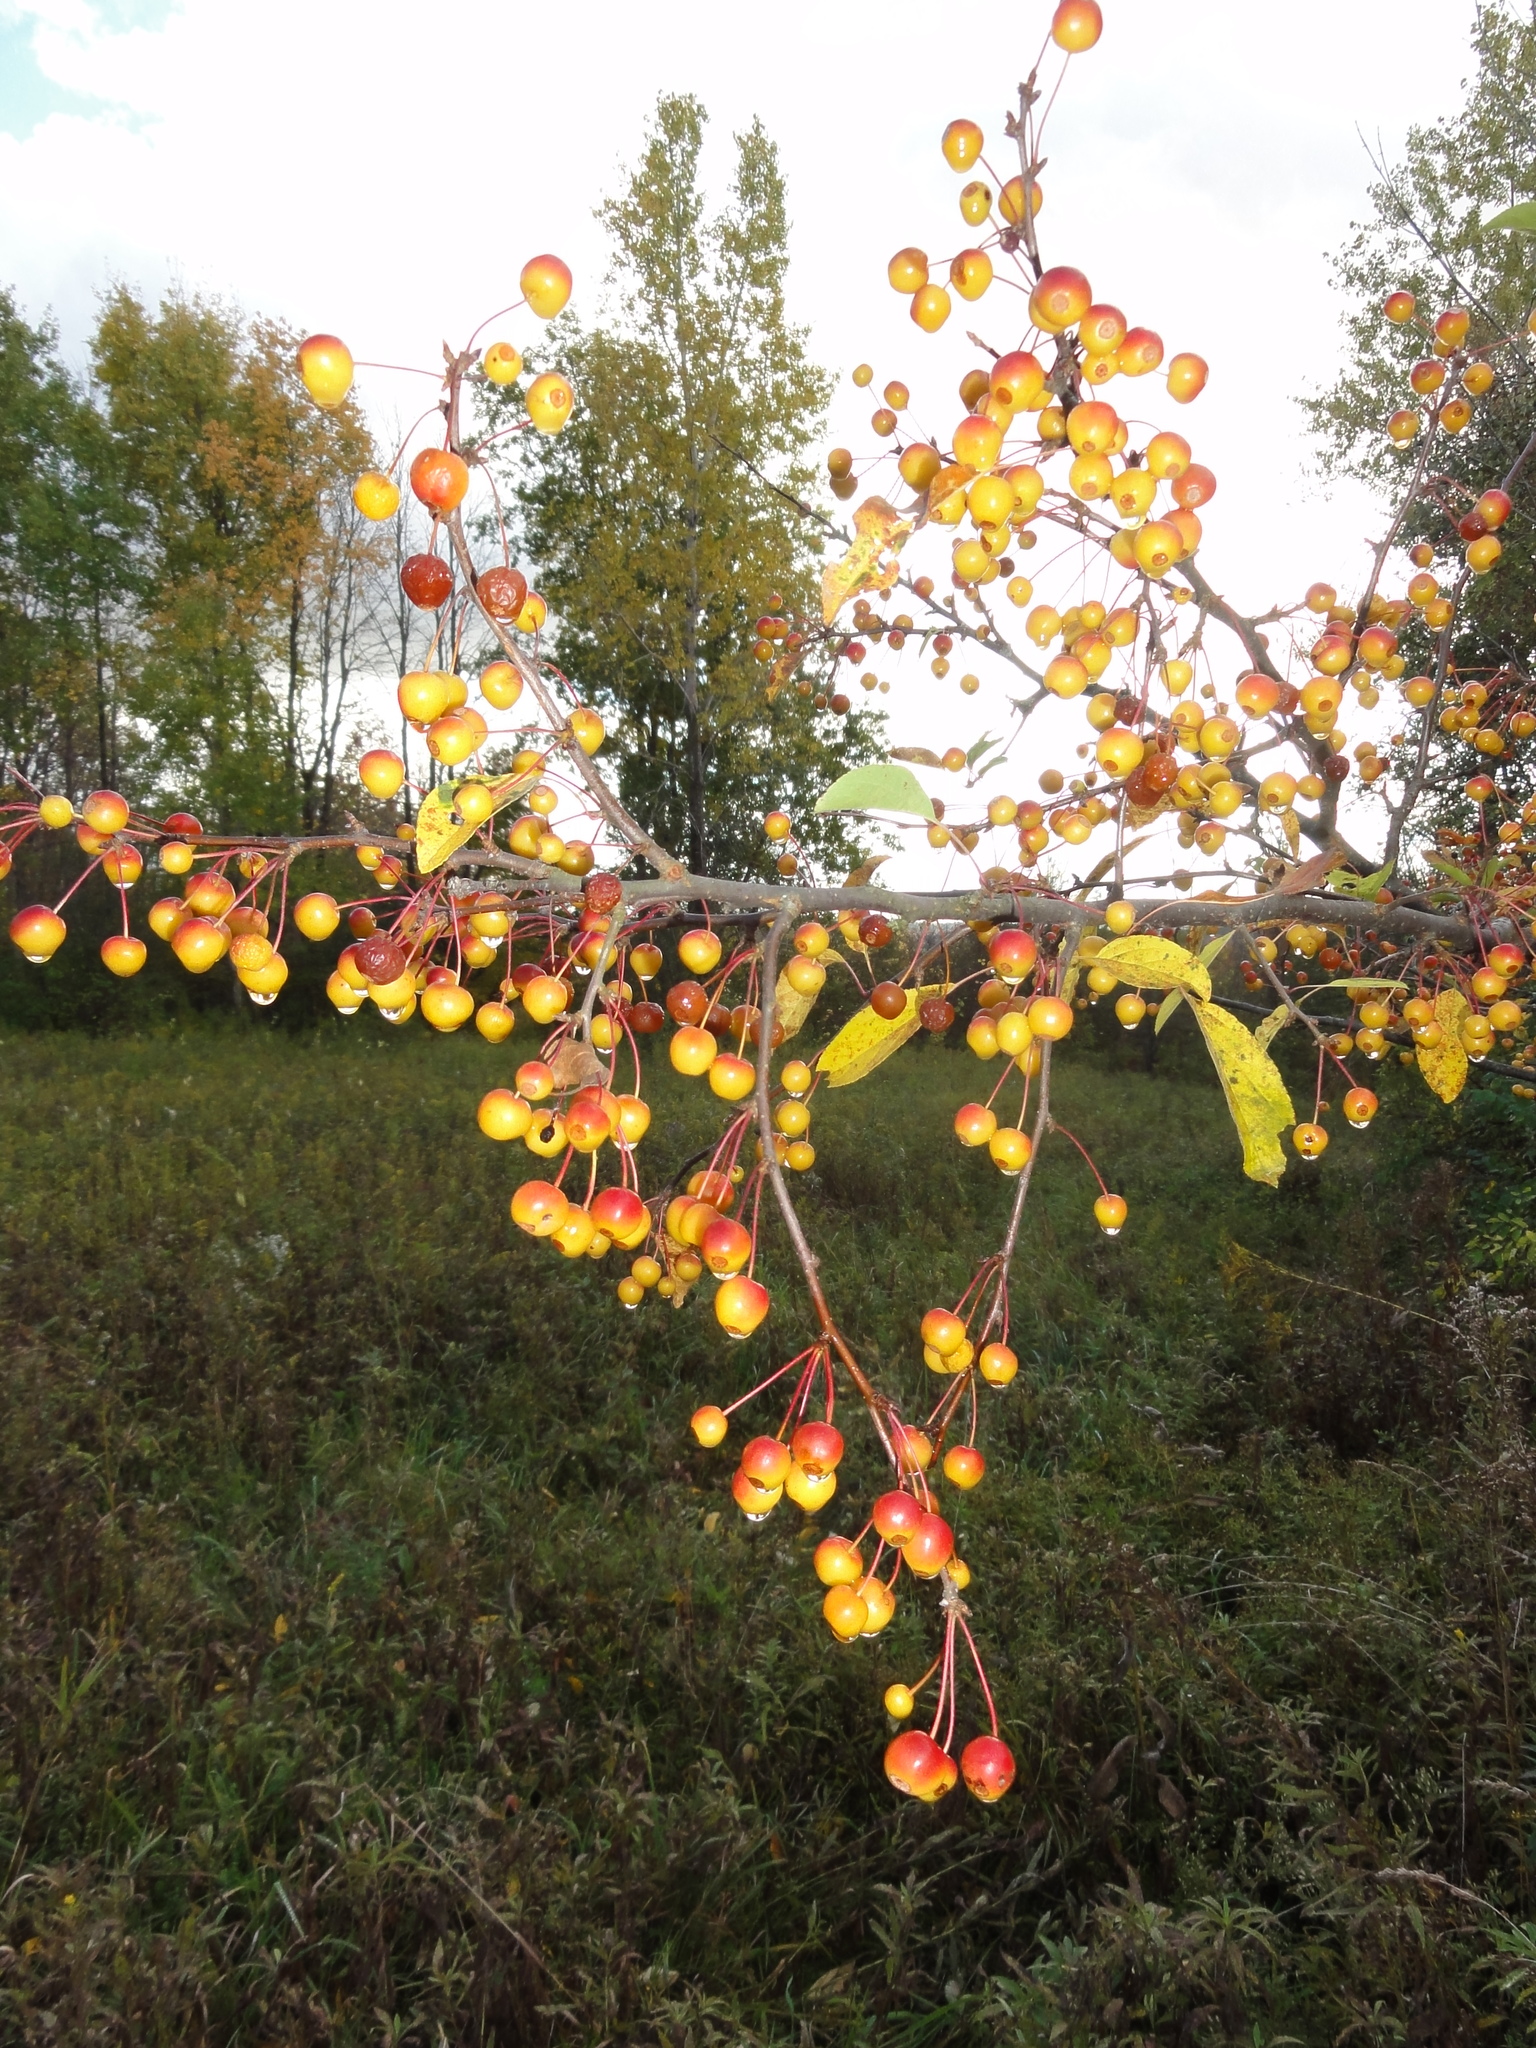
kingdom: Plantae
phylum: Tracheophyta
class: Magnoliopsida
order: Rosales
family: Rosaceae
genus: Malus
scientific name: Malus
